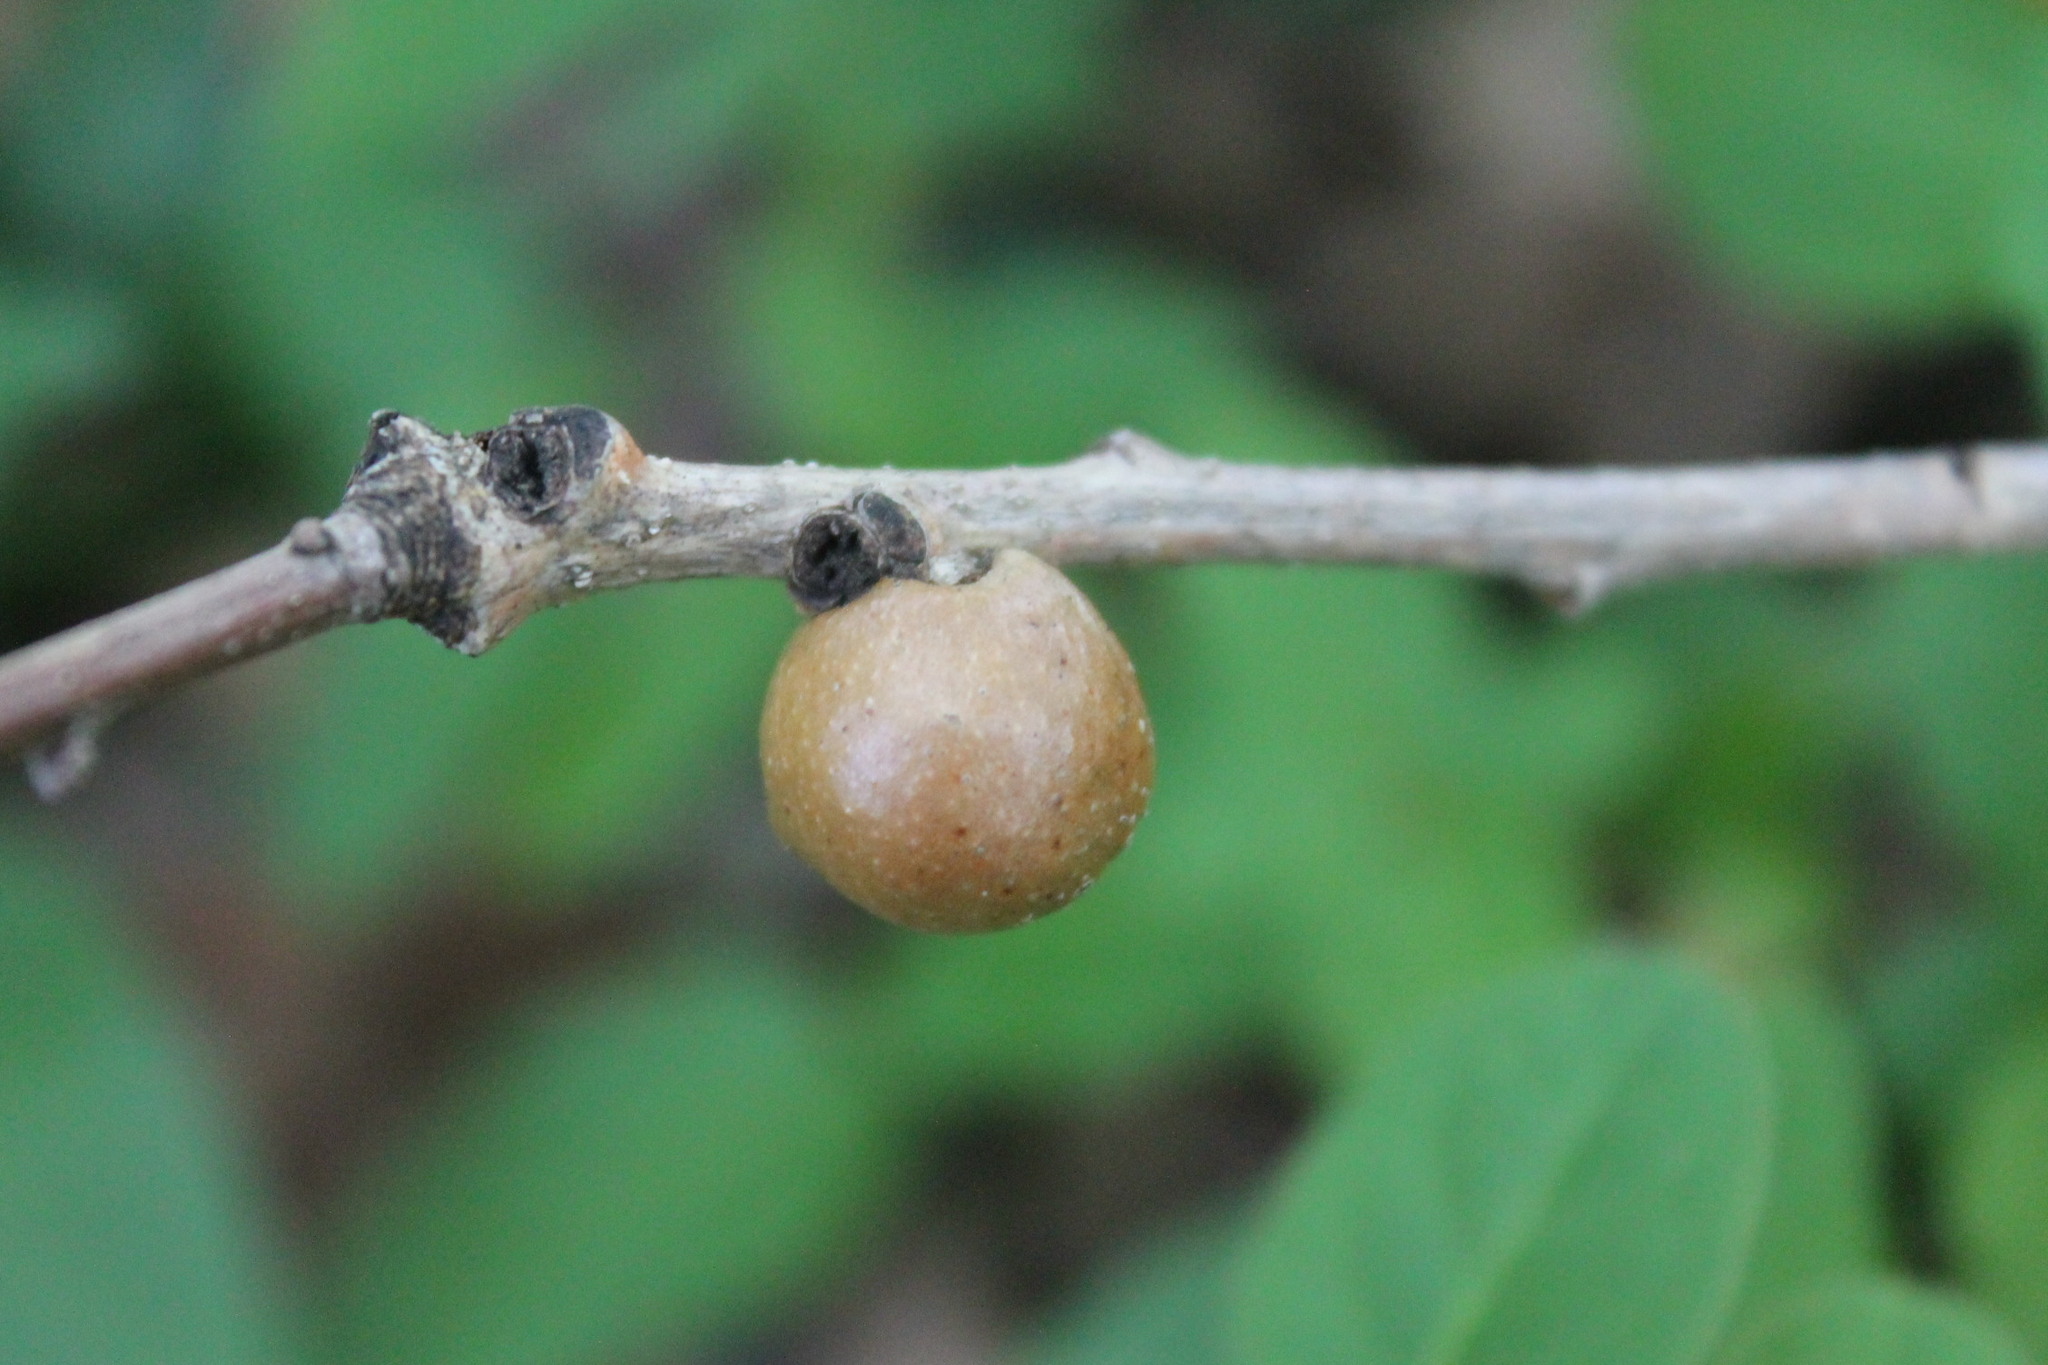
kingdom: Animalia
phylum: Arthropoda
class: Insecta
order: Hymenoptera
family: Cynipidae
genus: Disholcaspis
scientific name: Disholcaspis quercusglobulus
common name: Round bullet gall wasp
